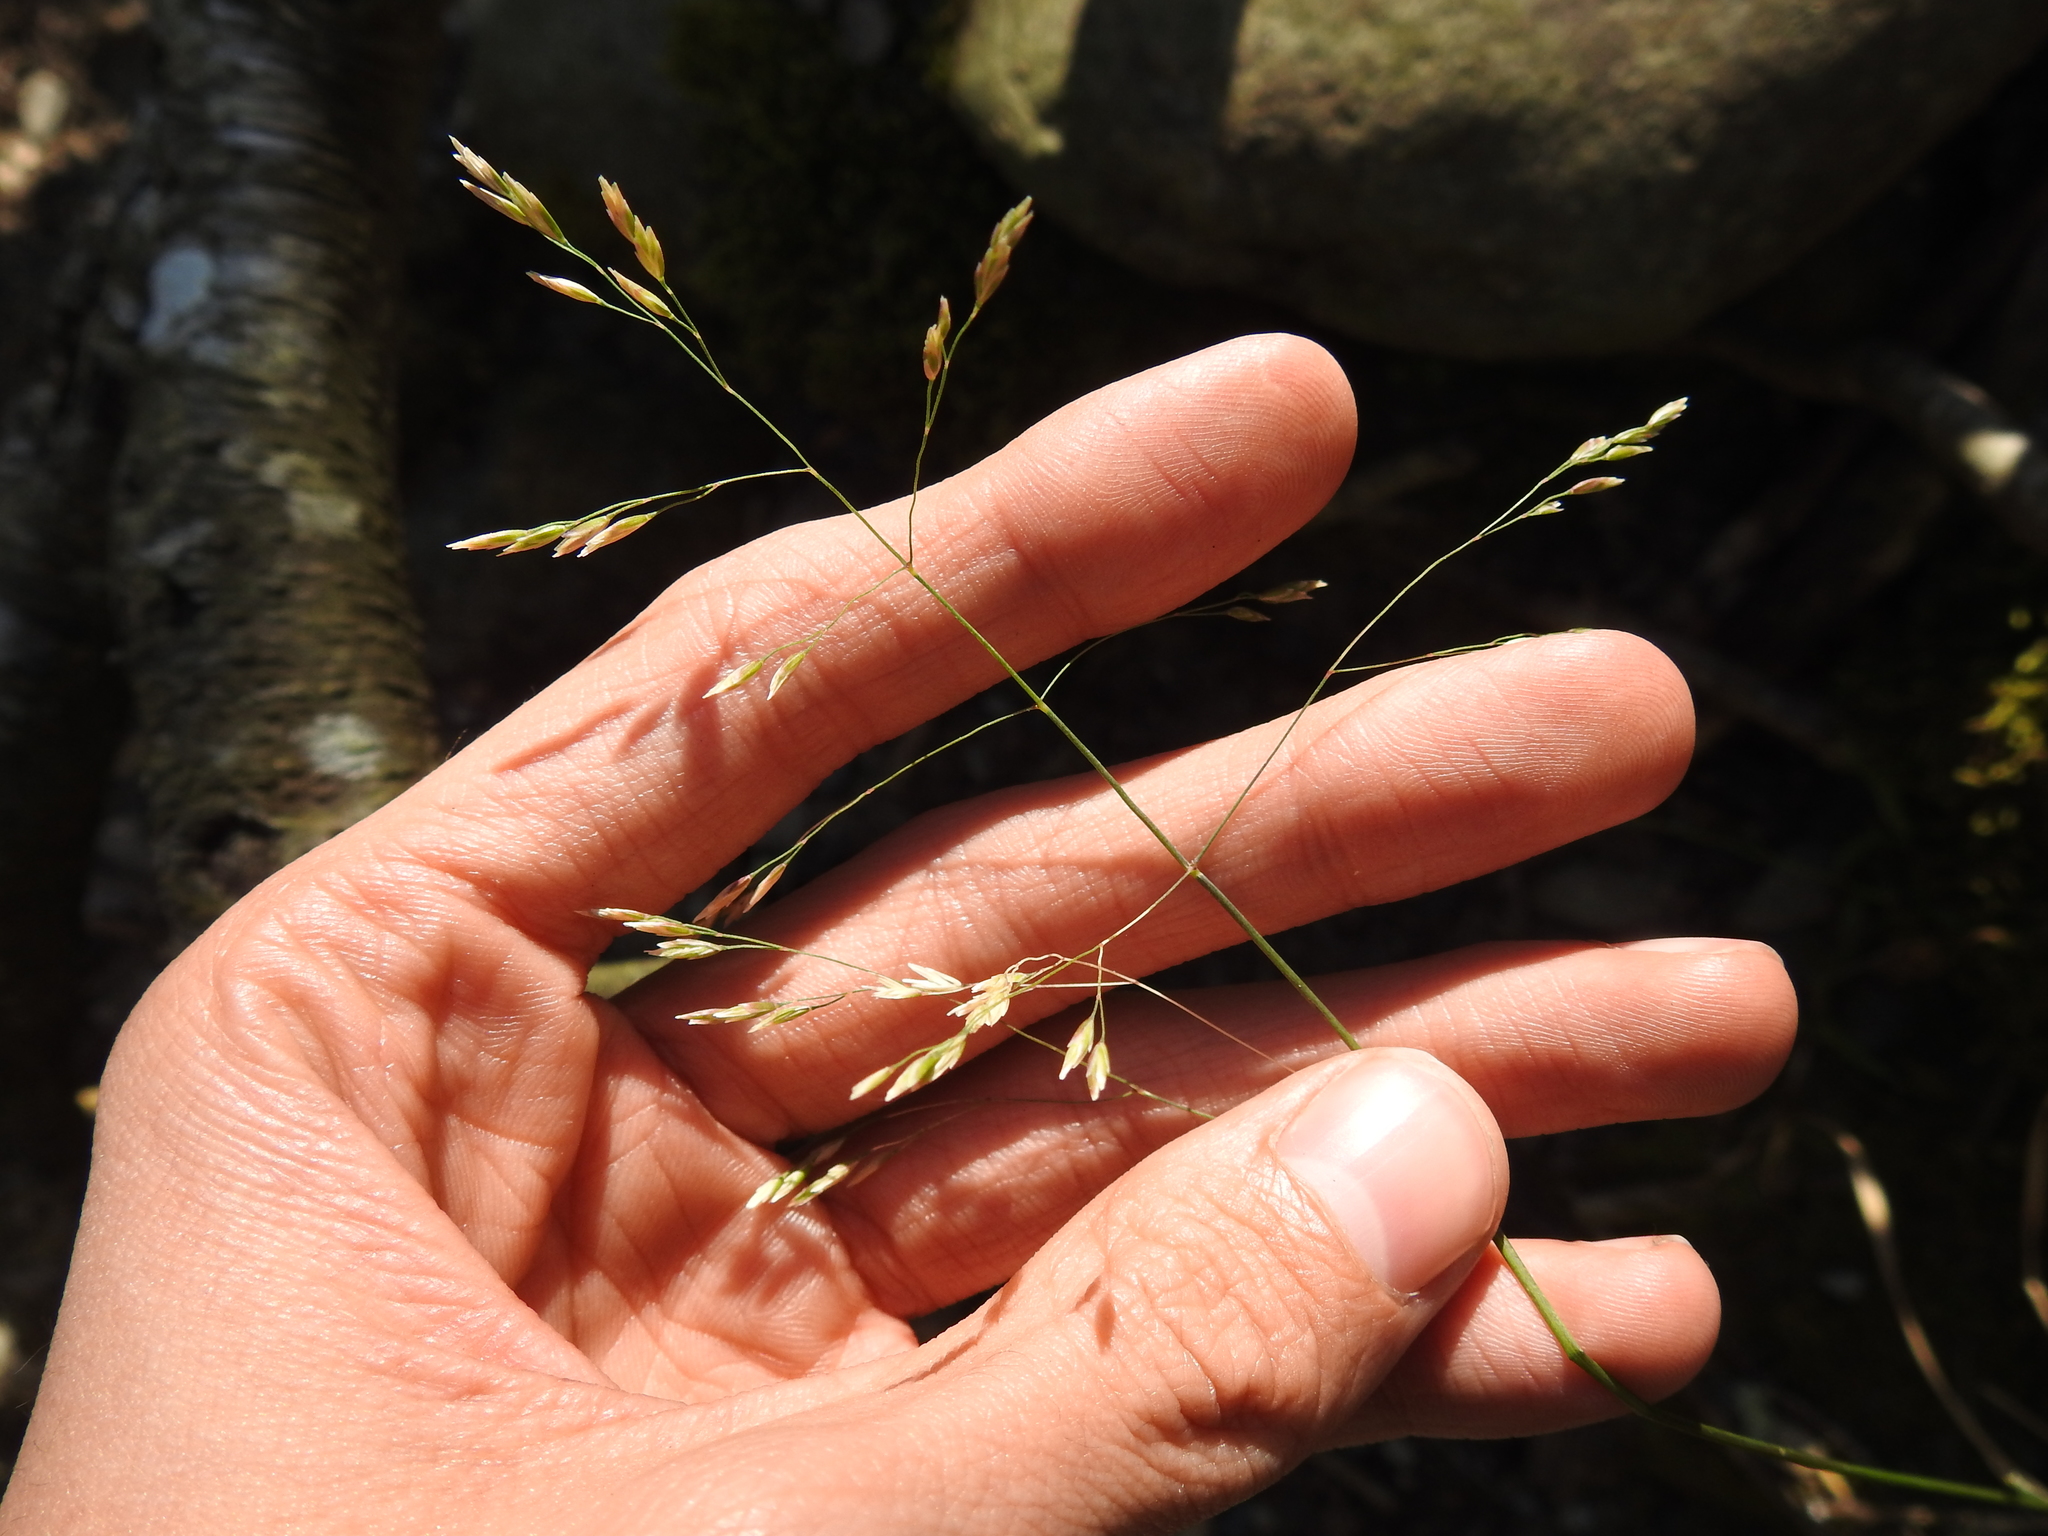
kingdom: Plantae
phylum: Tracheophyta
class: Liliopsida
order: Poales
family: Poaceae
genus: Poa
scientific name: Poa cuspidata
